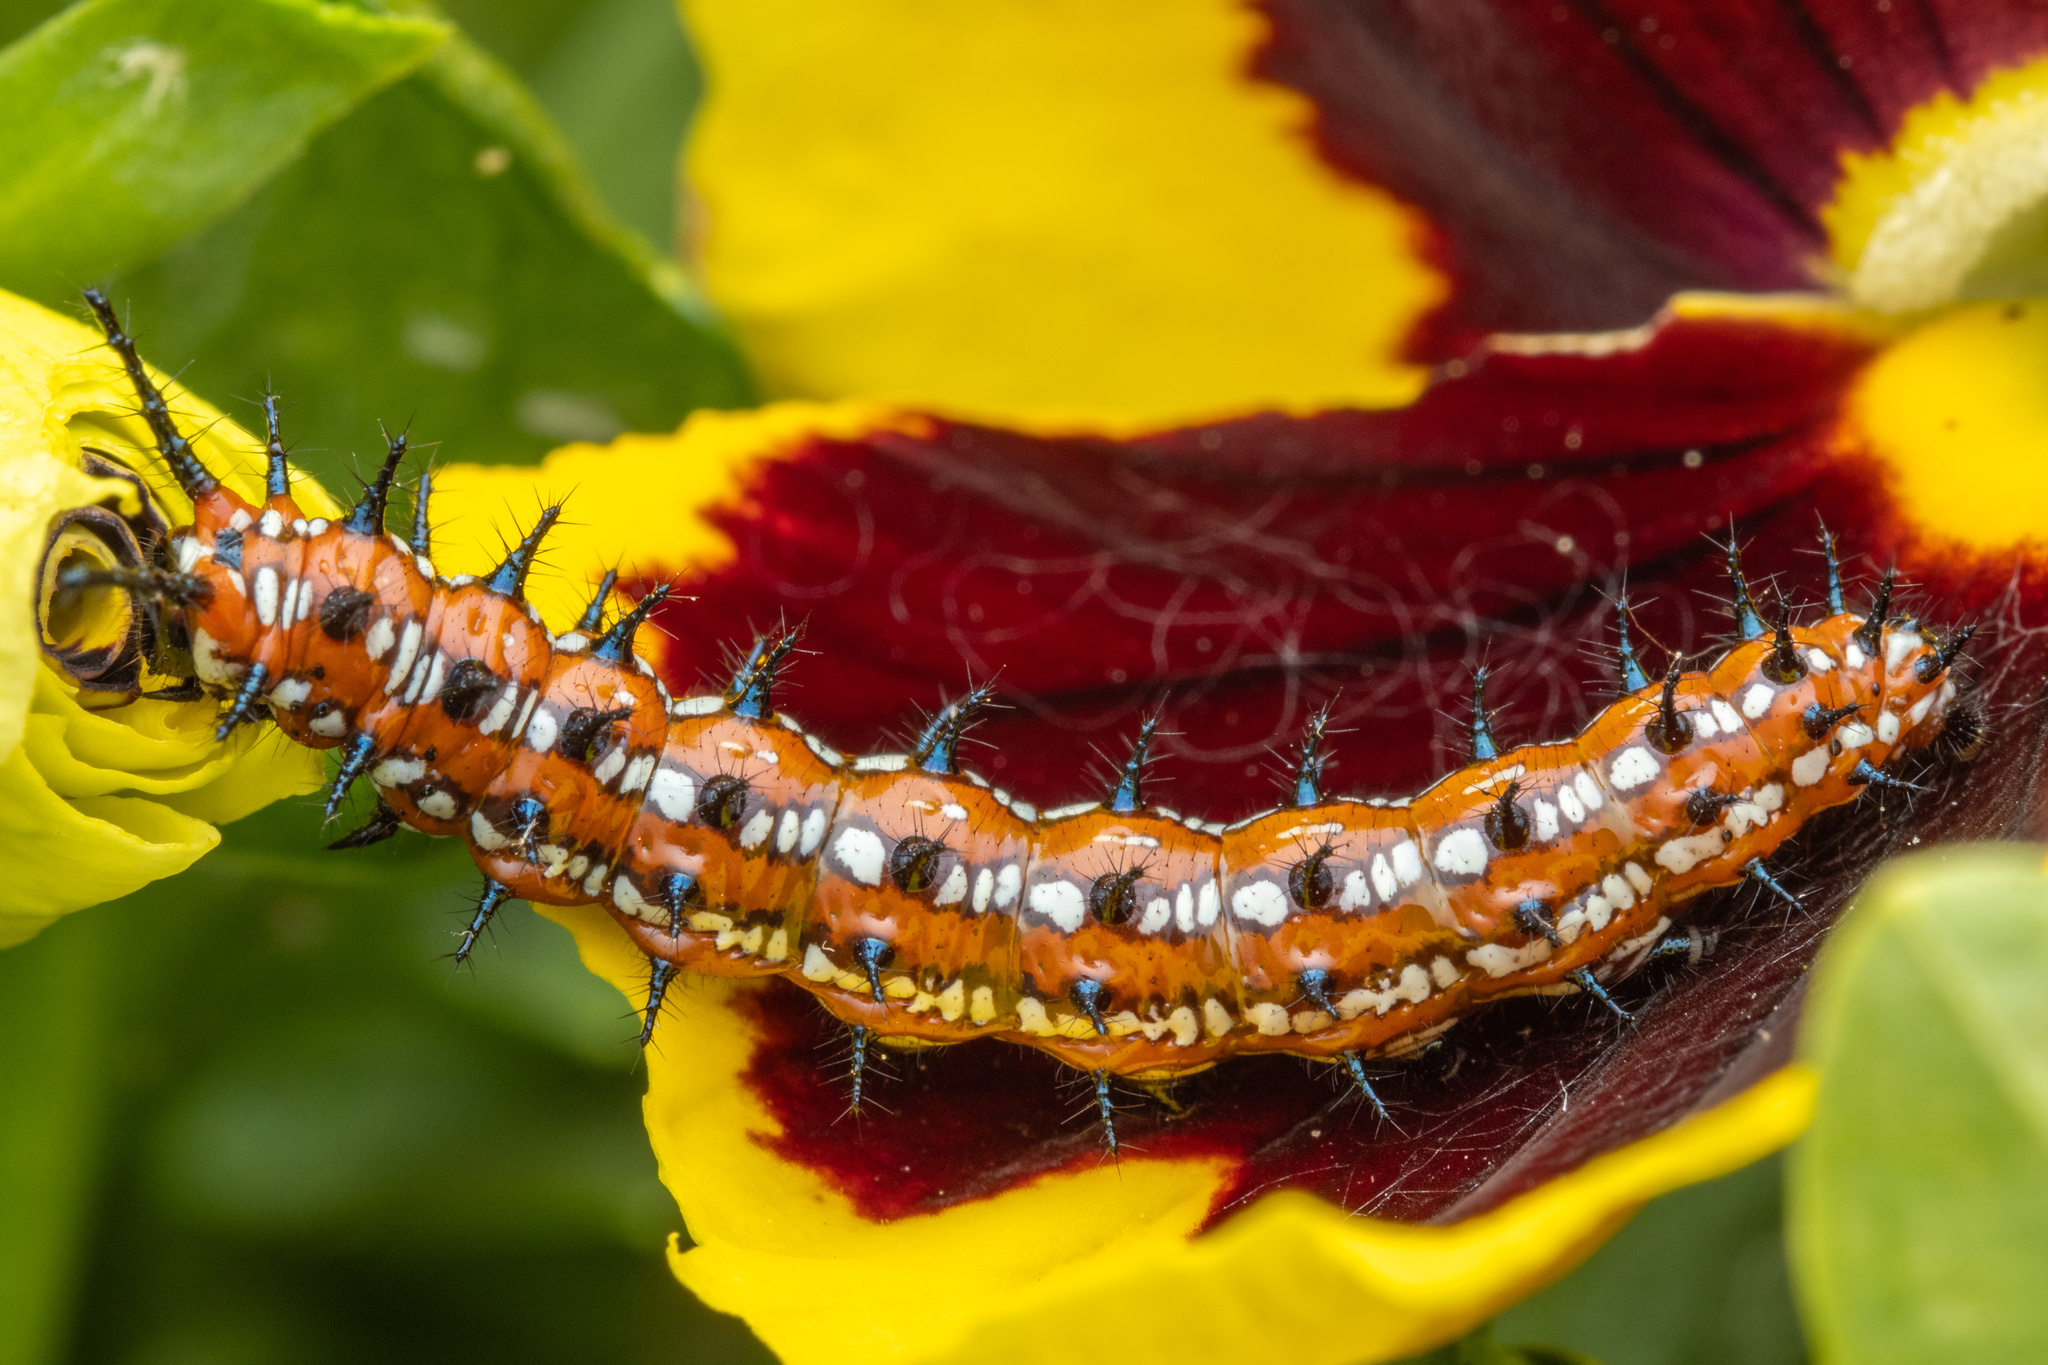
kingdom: Animalia
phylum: Arthropoda
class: Insecta
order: Lepidoptera
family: Nymphalidae
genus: Euptoieta
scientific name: Euptoieta claudia
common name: Variegated fritillary
